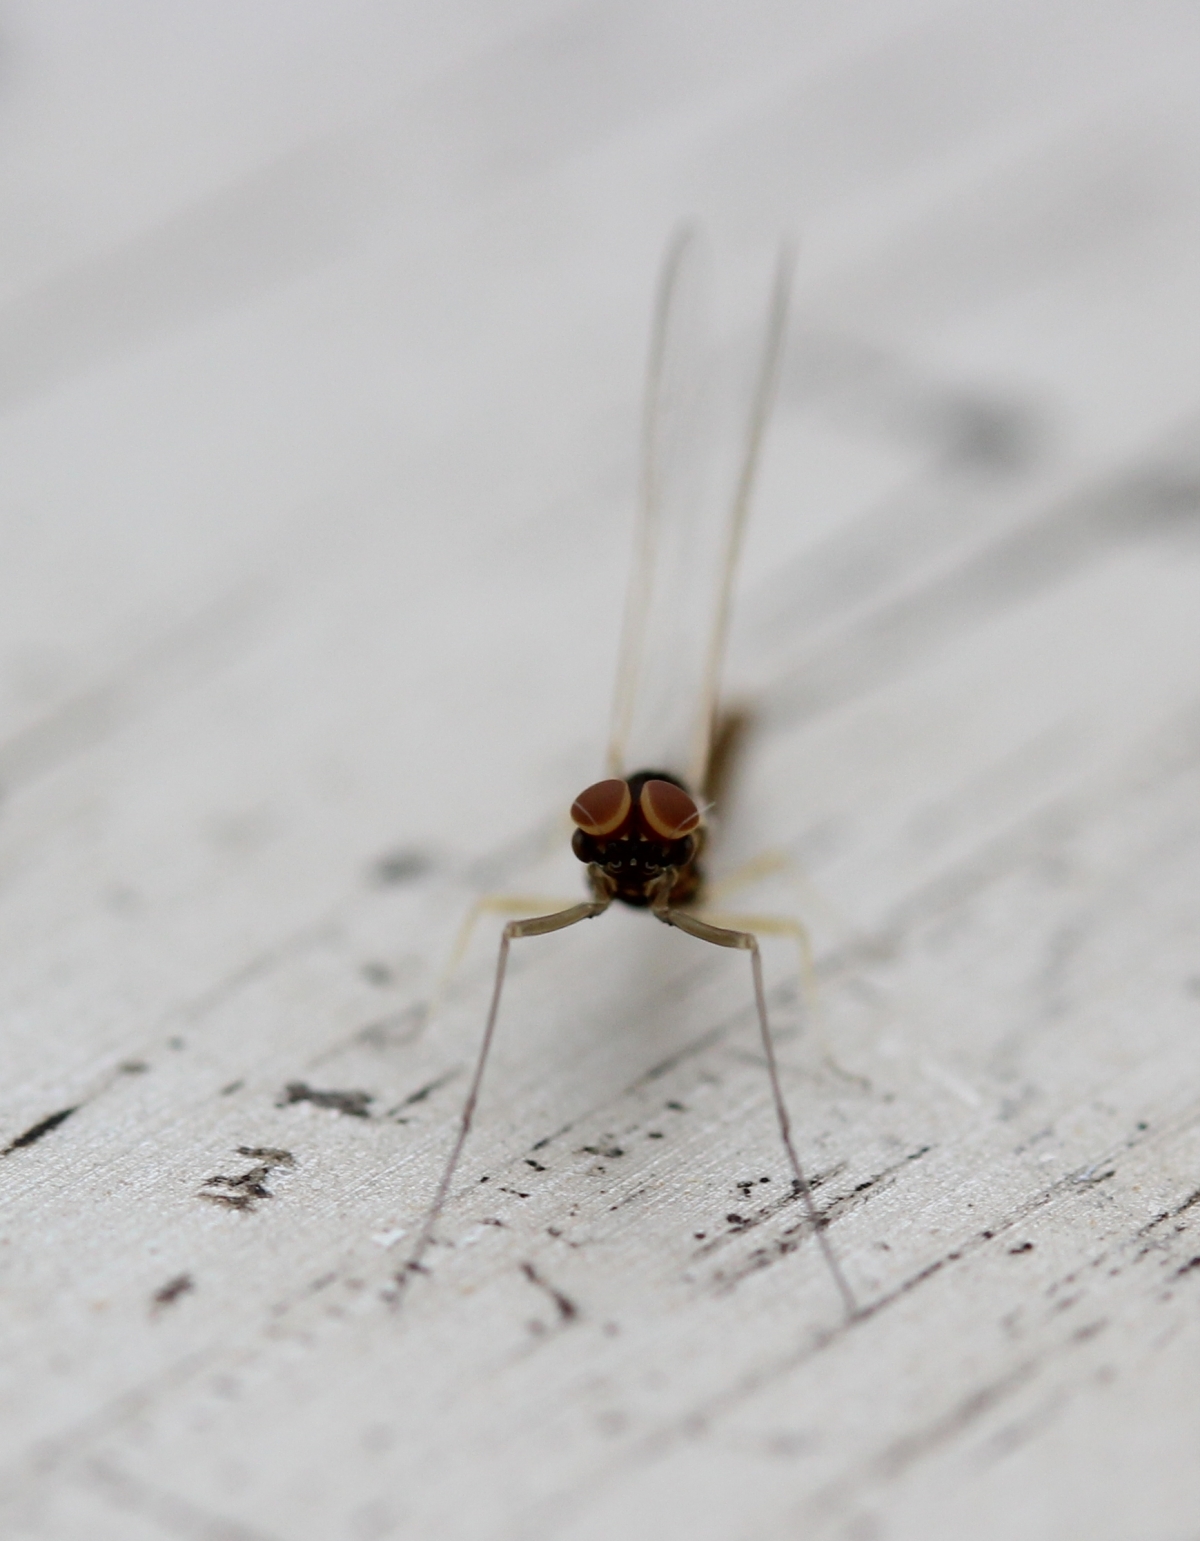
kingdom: Animalia
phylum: Arthropoda
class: Insecta
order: Ephemeroptera
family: Baetidae
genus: Baetis
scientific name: Baetis
